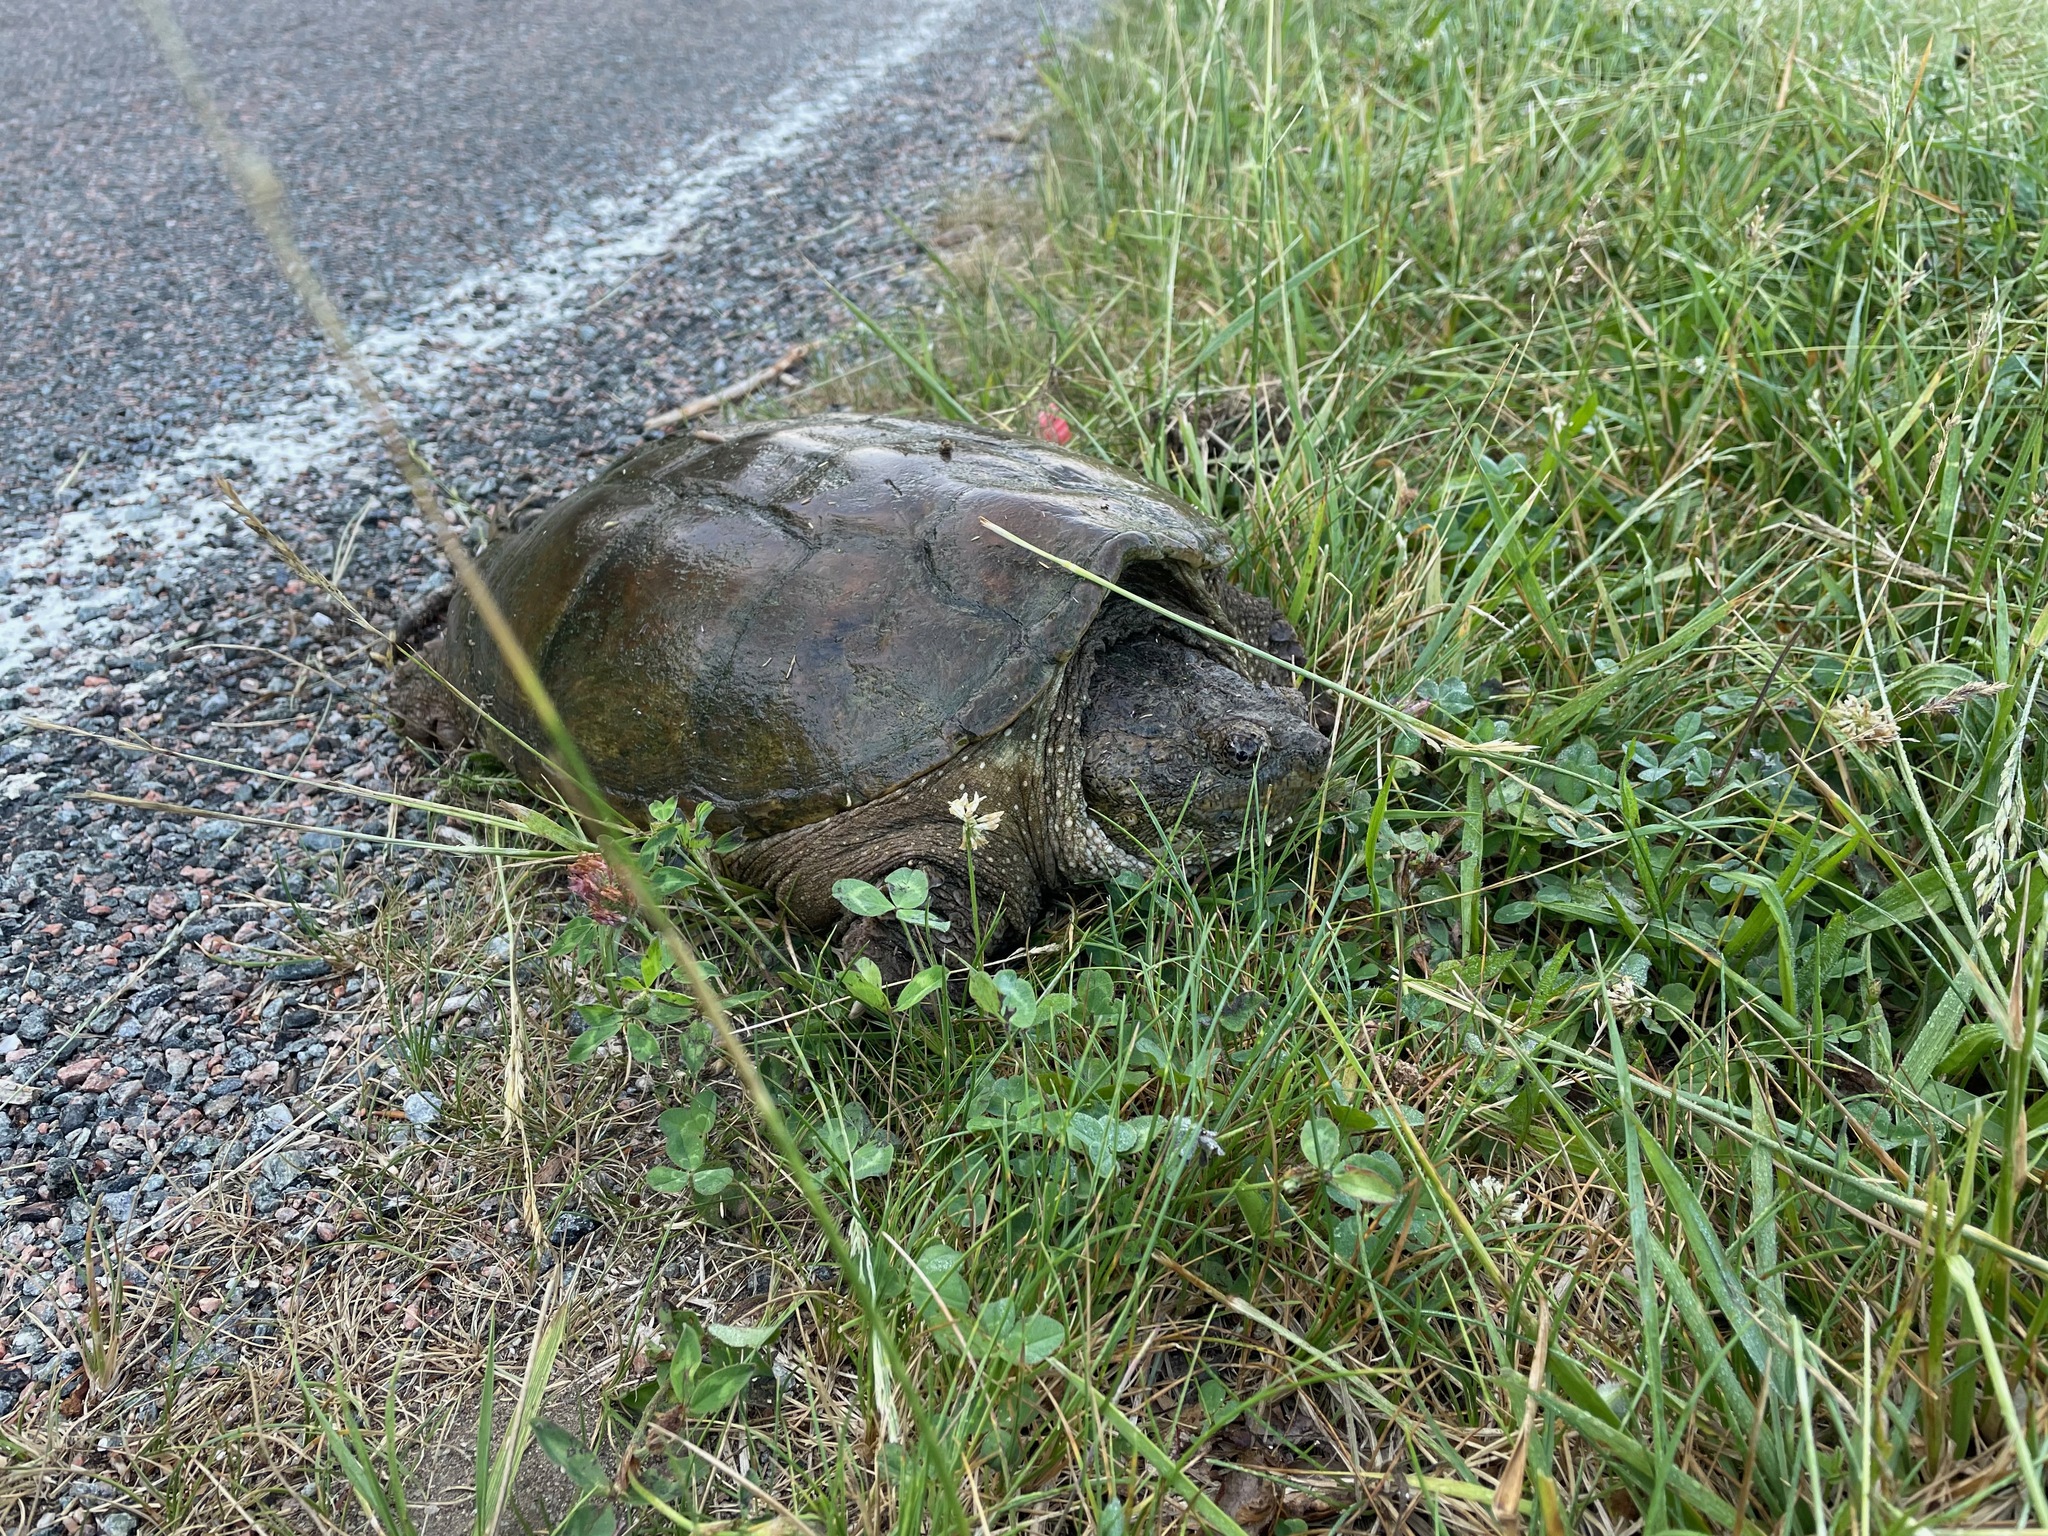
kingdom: Animalia
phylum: Chordata
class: Testudines
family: Chelydridae
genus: Chelydra
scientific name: Chelydra serpentina
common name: Common snapping turtle
